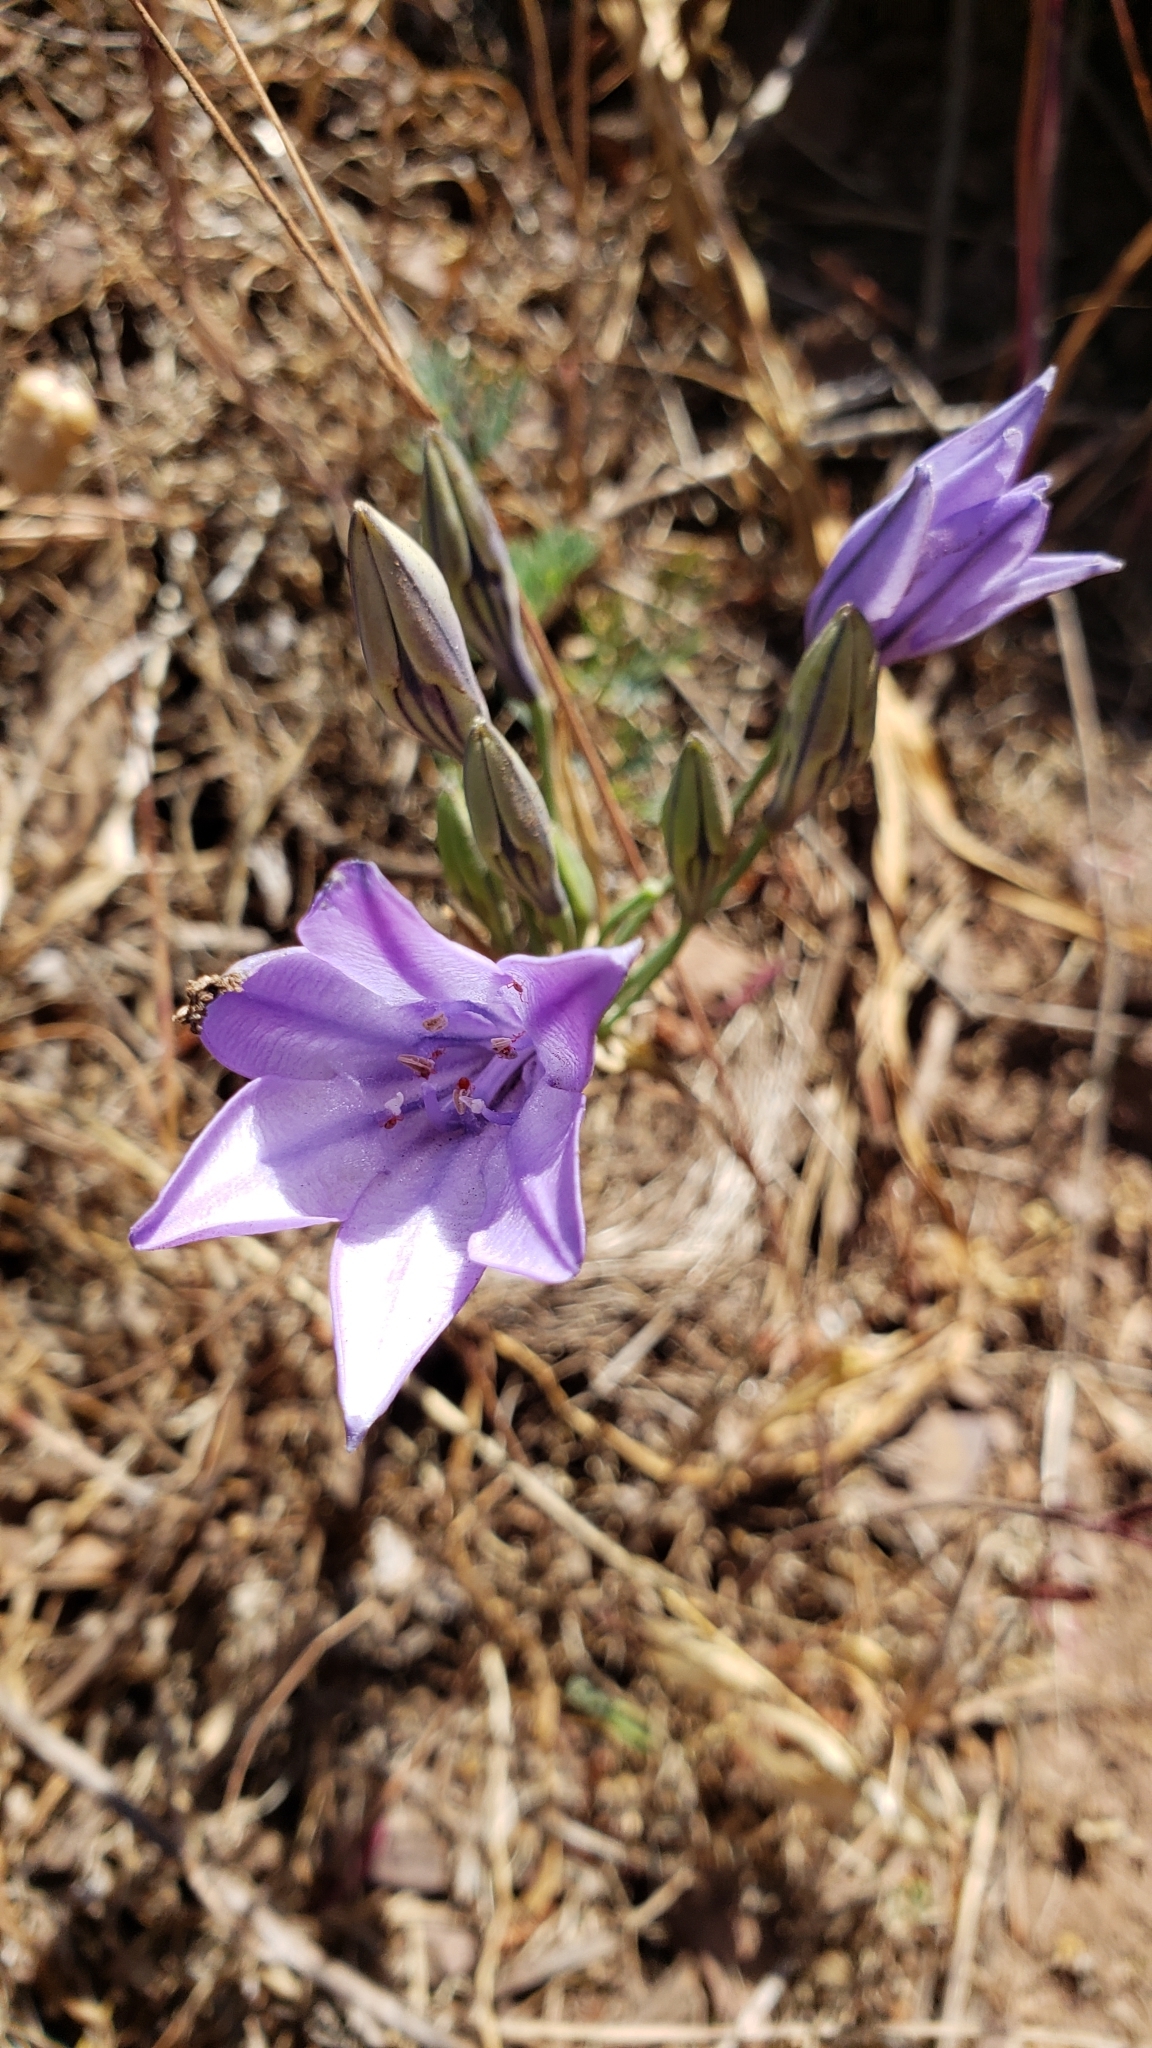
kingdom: Plantae
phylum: Tracheophyta
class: Liliopsida
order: Asparagales
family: Asparagaceae
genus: Triteleia
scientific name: Triteleia laxa
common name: Triplet-lily
